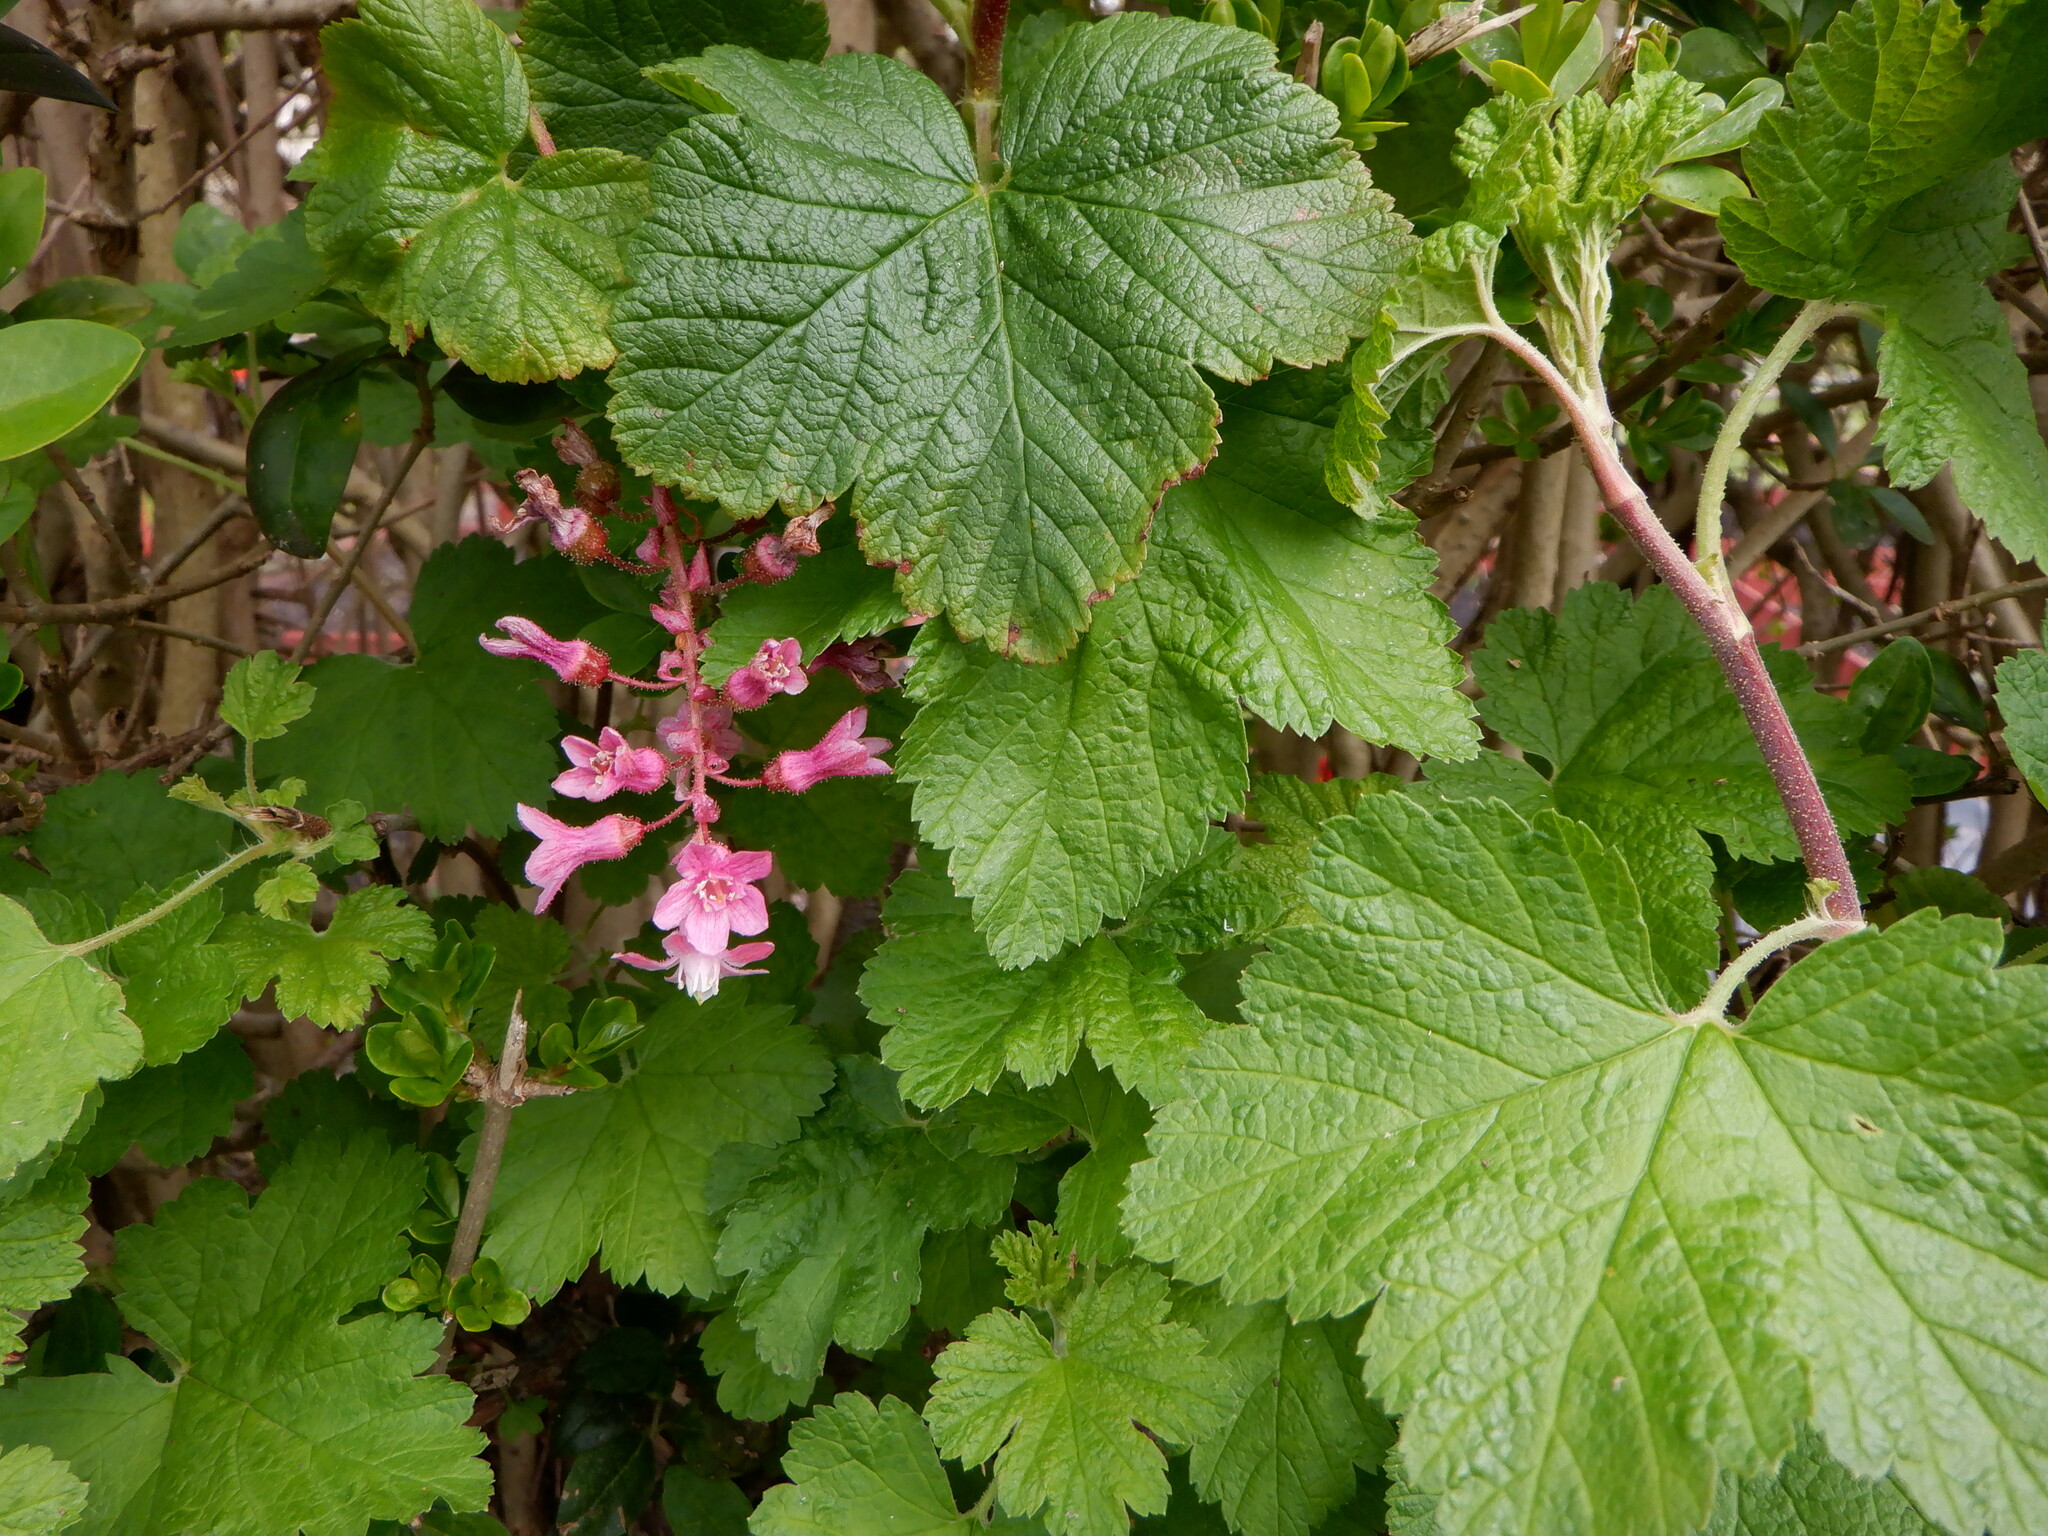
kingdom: Plantae
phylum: Tracheophyta
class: Magnoliopsida
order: Saxifragales
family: Grossulariaceae
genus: Ribes
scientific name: Ribes sanguineum
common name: Flowering currant
